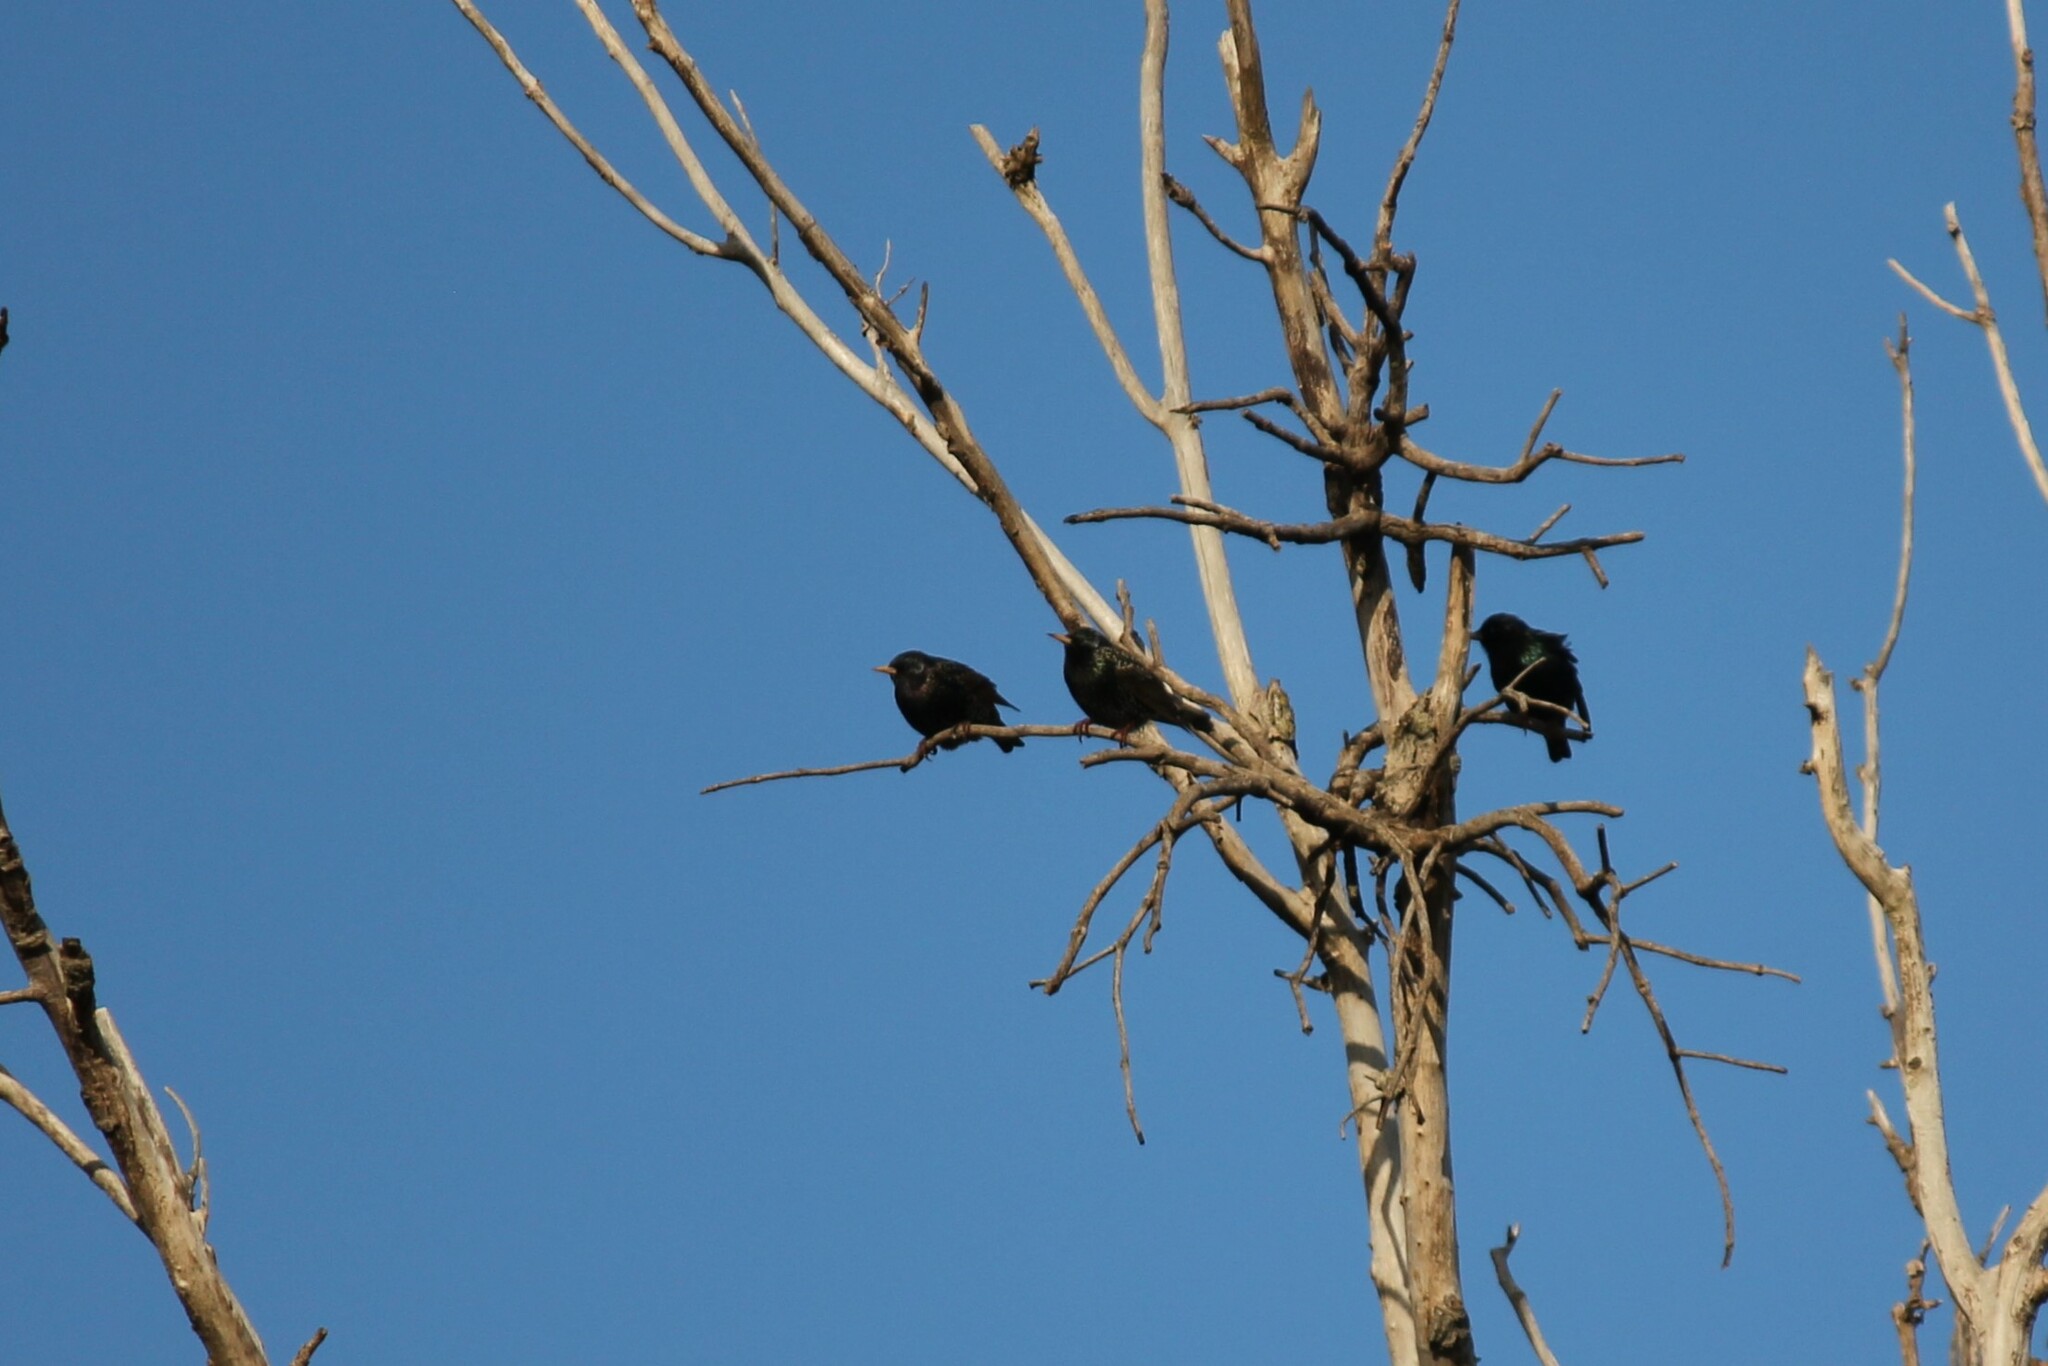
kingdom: Animalia
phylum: Chordata
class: Aves
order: Passeriformes
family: Sturnidae
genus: Sturnus
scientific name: Sturnus vulgaris
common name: Common starling
